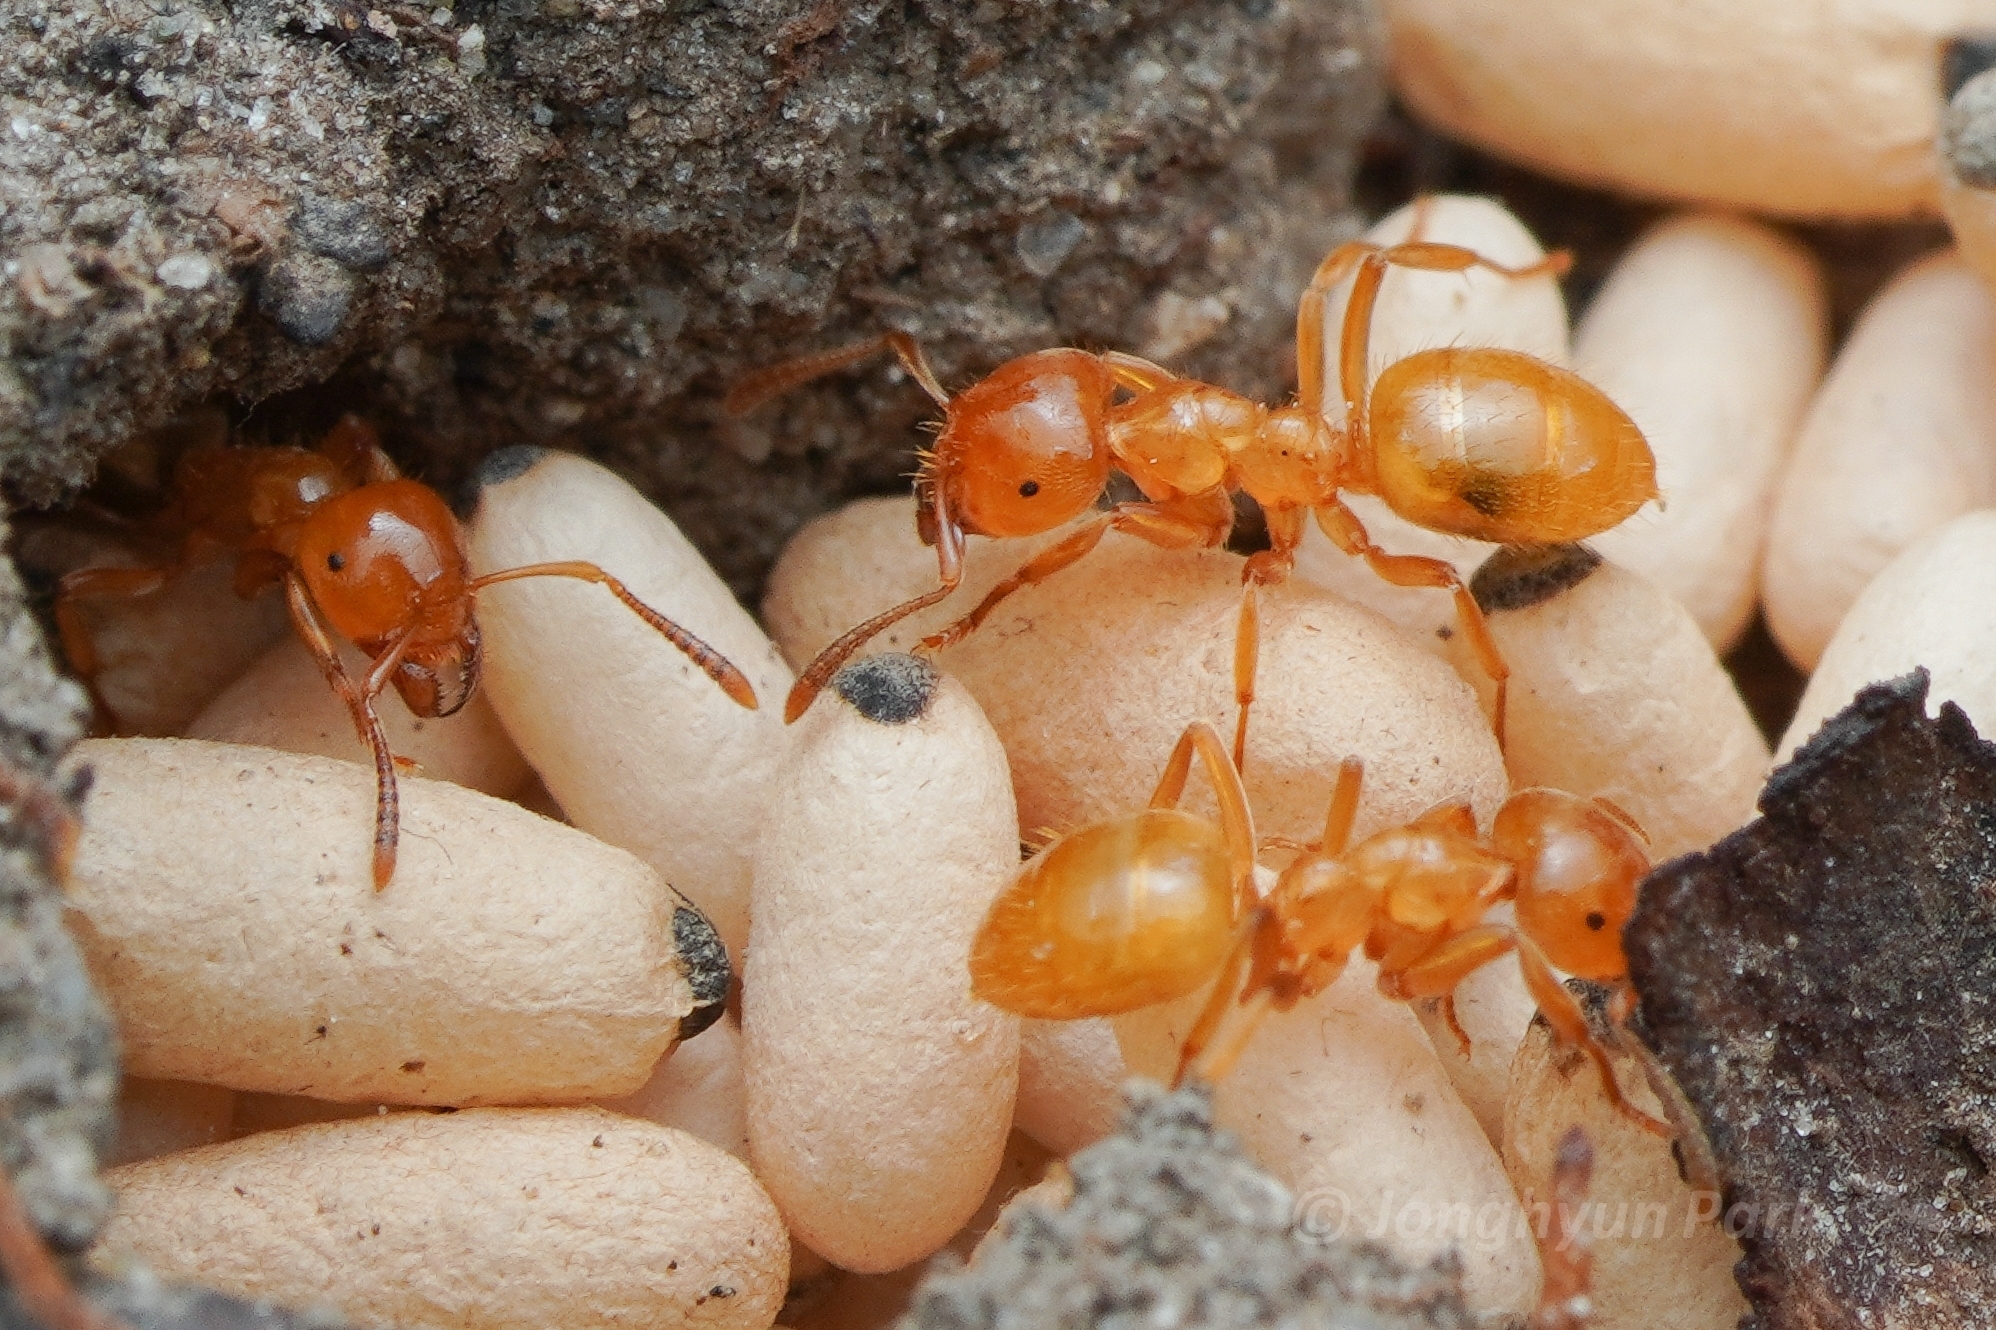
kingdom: Animalia
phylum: Arthropoda
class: Insecta
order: Hymenoptera
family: Formicidae
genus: Lasius
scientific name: Lasius claviger
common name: Common citronella ant
